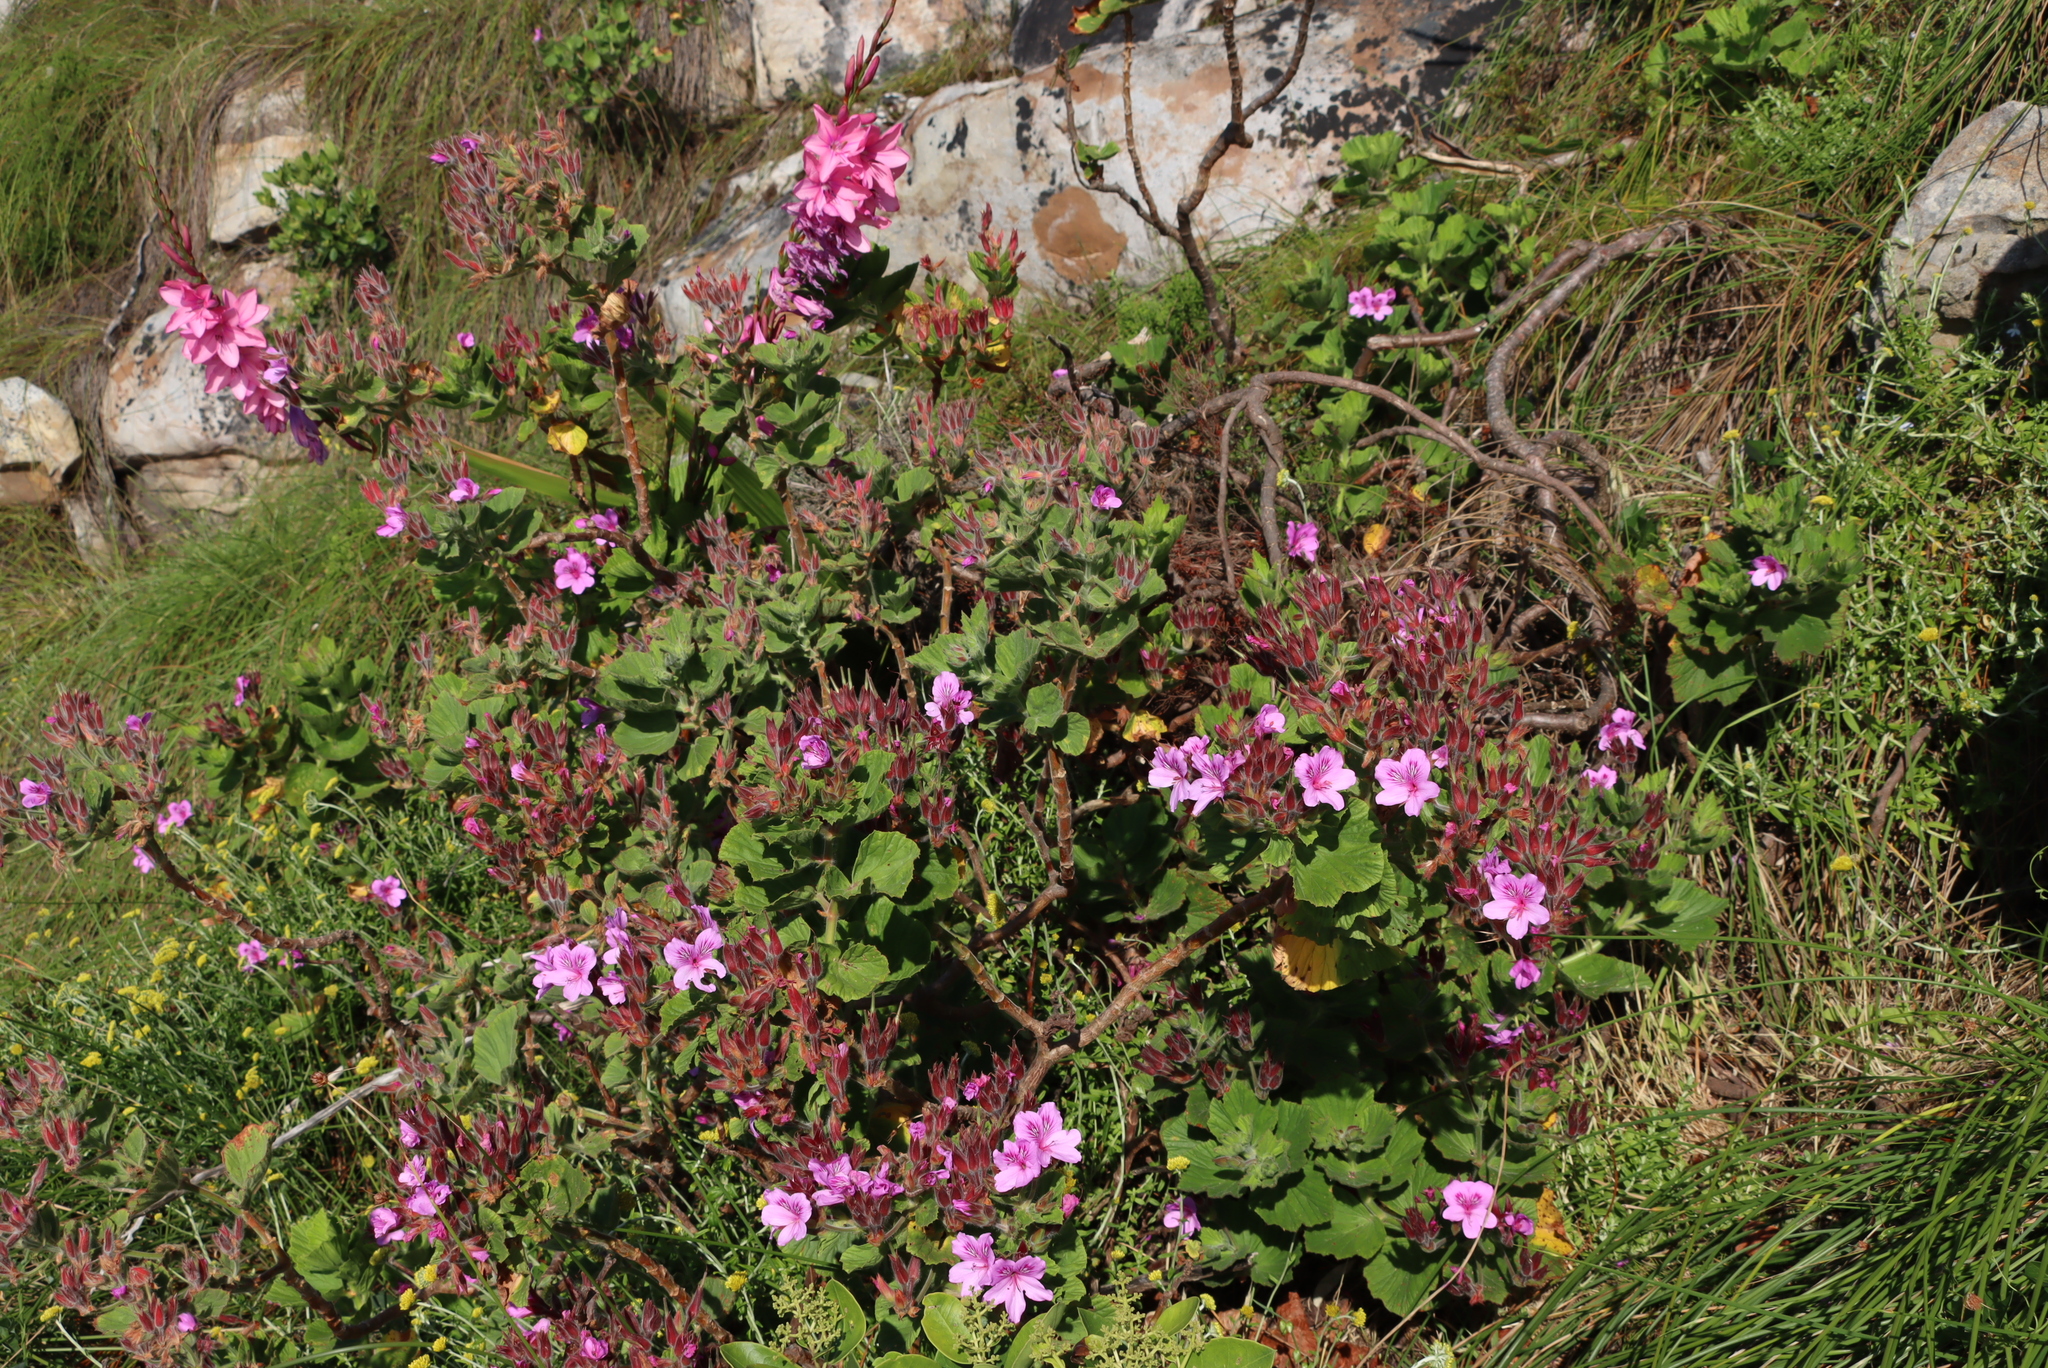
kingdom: Plantae
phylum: Tracheophyta
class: Magnoliopsida
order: Geraniales
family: Geraniaceae
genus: Pelargonium
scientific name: Pelargonium cucullatum
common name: Tree pelargonium
